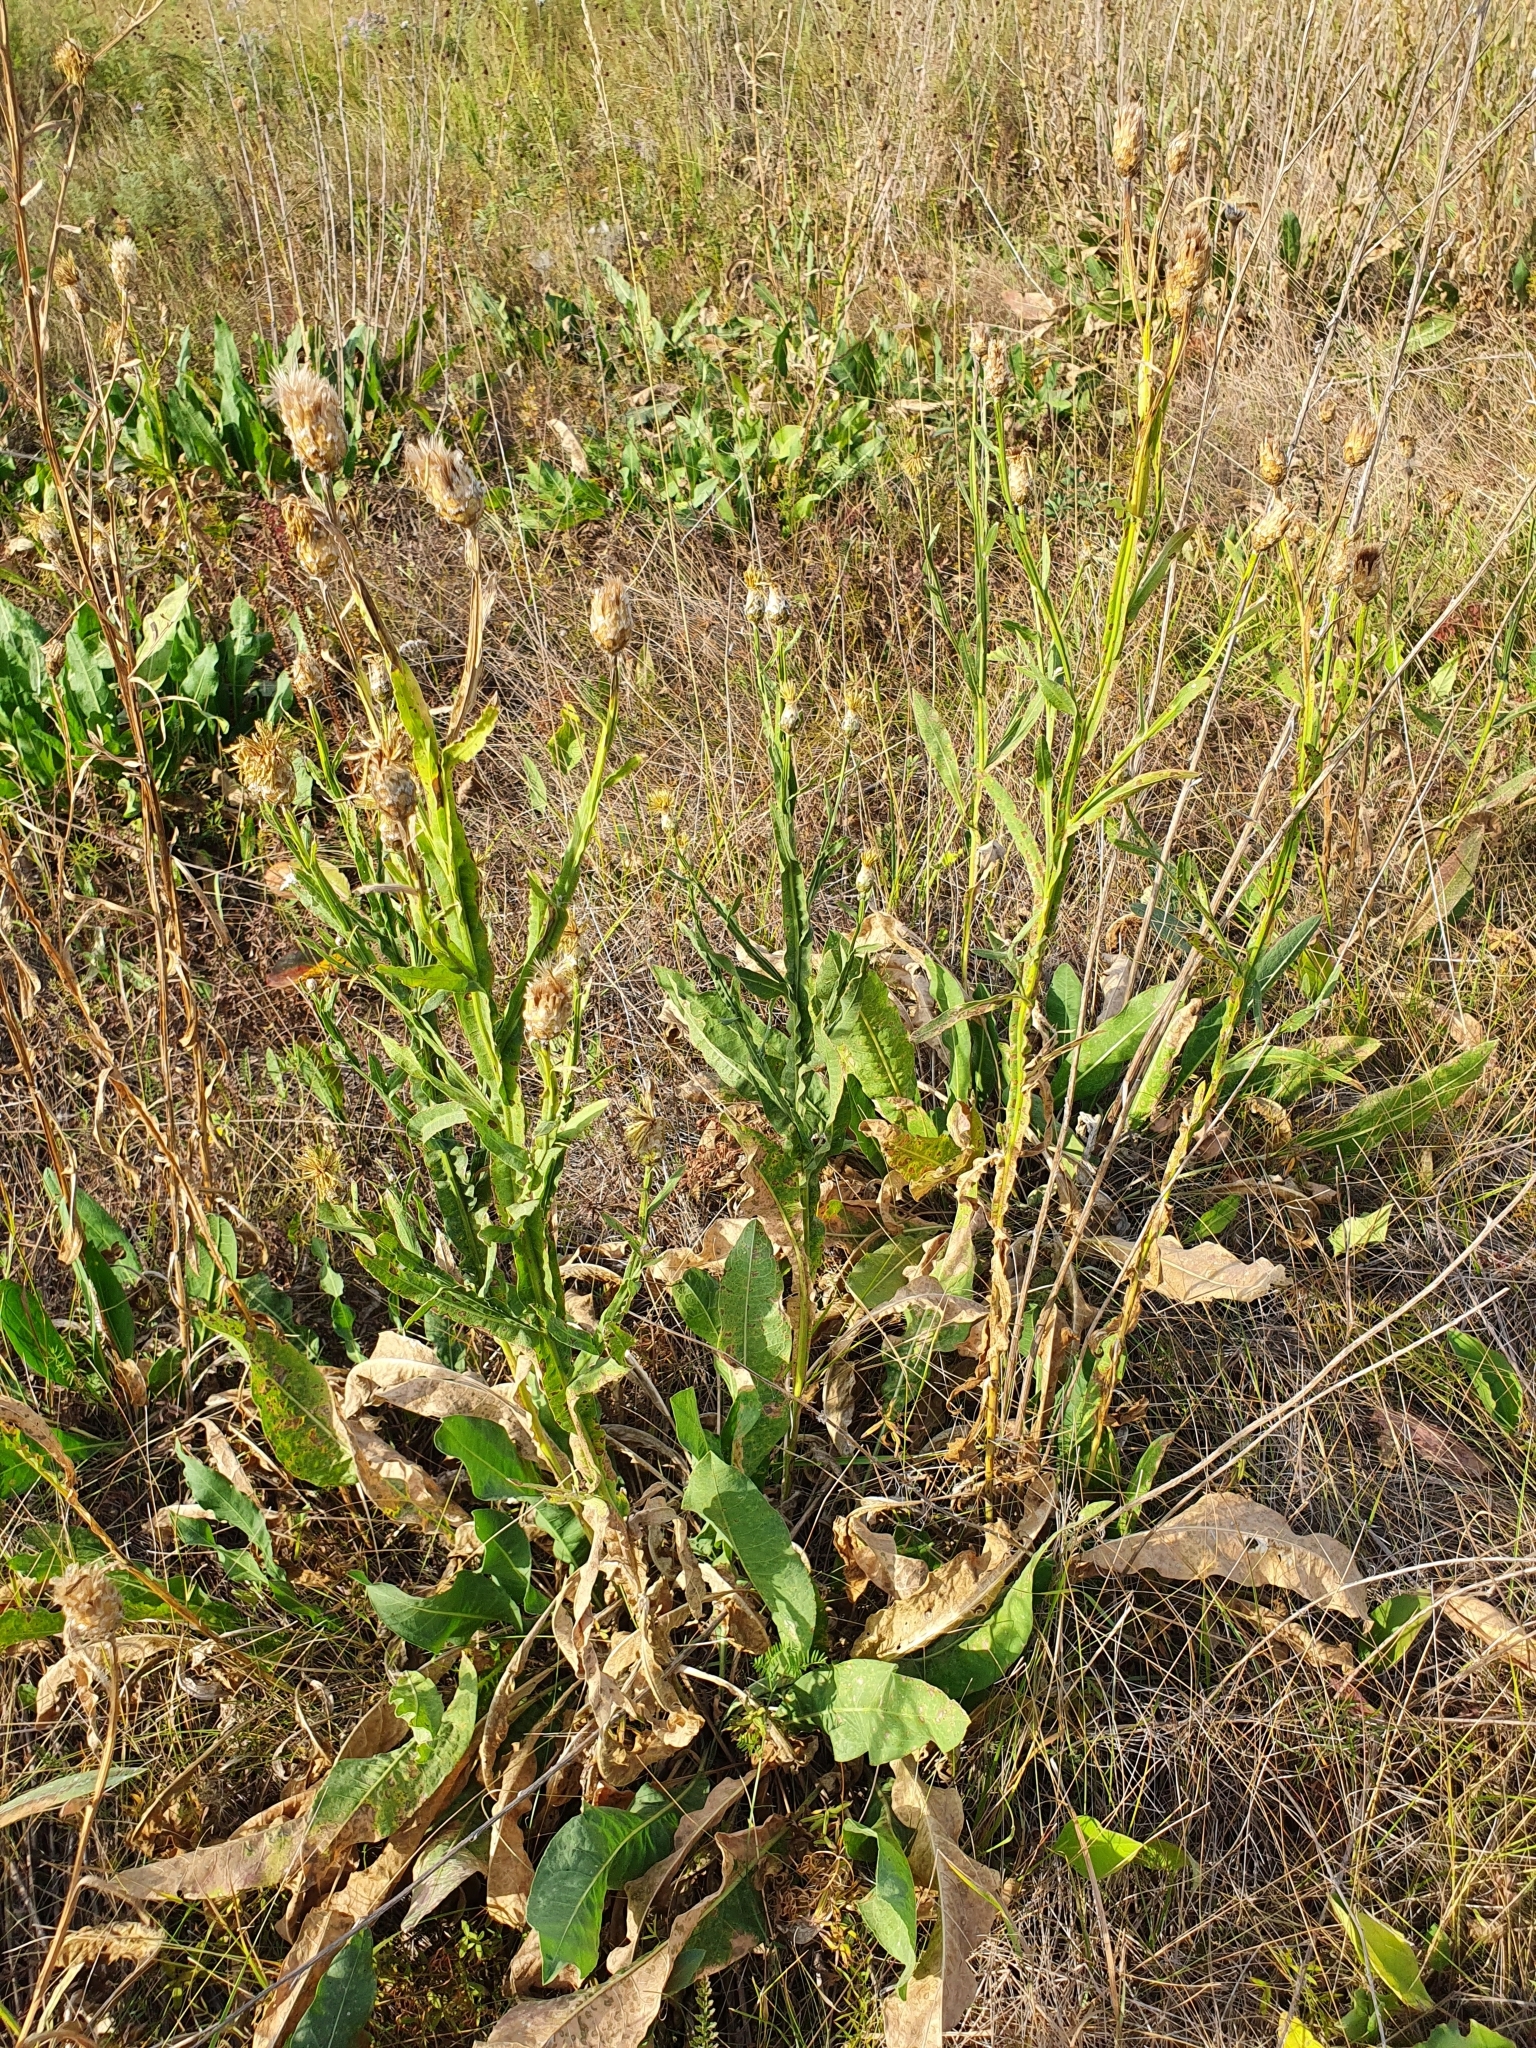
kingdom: Plantae
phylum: Tracheophyta
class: Magnoliopsida
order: Asterales
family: Asteraceae
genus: Centaurea
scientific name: Centaurea glastifolia
